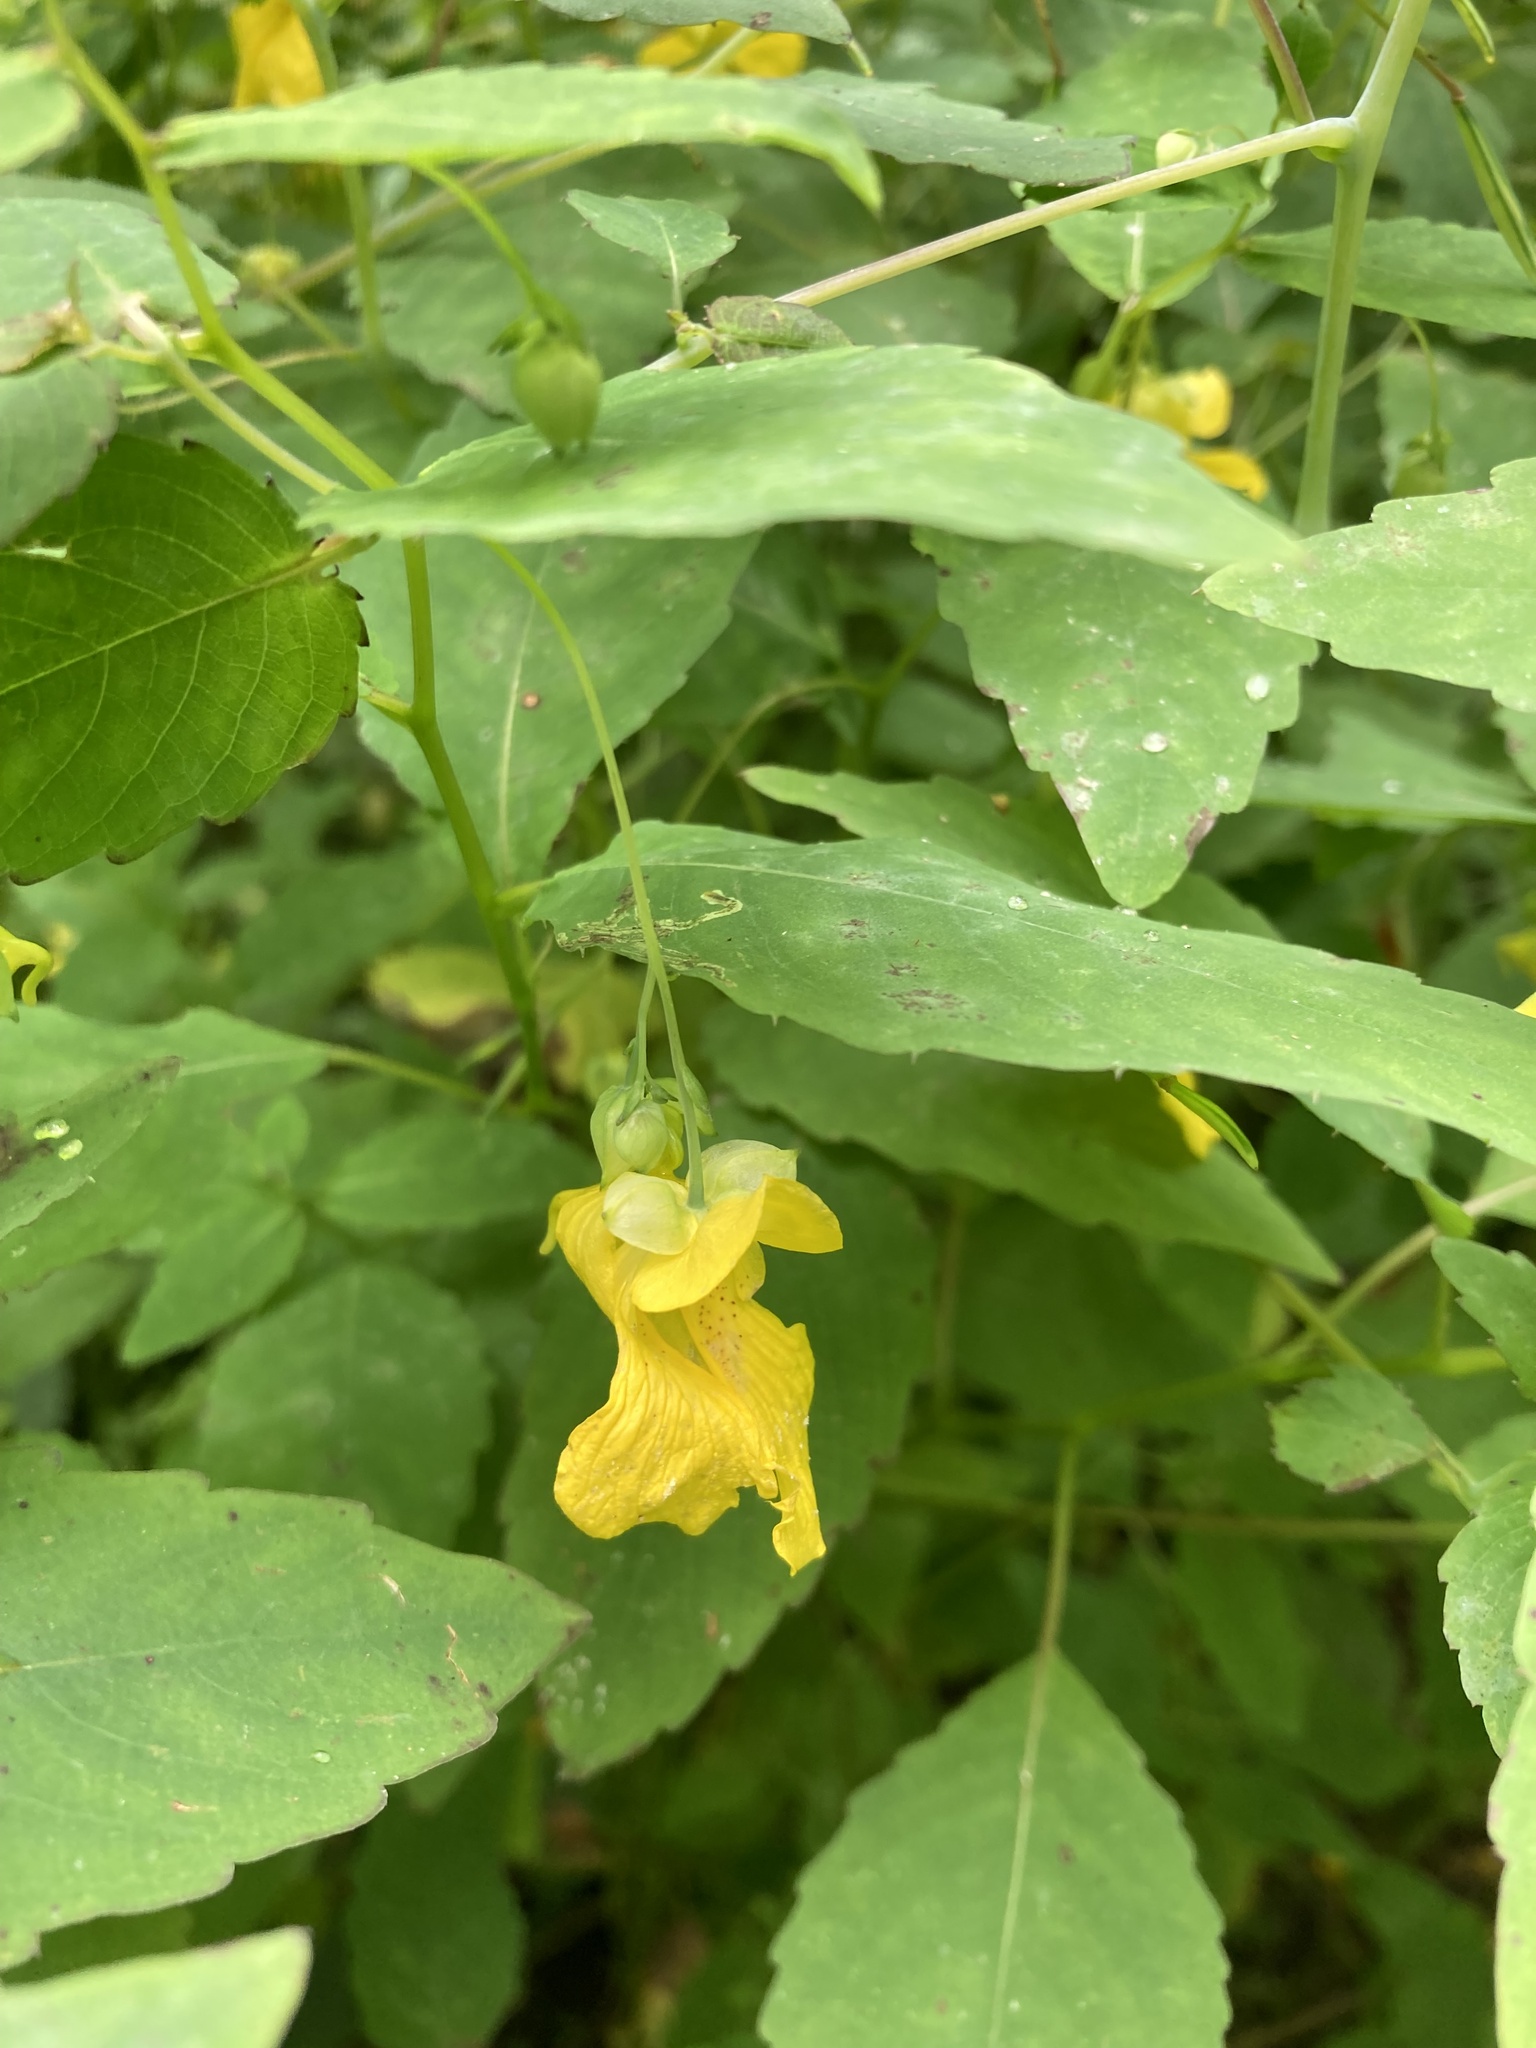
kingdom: Plantae
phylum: Tracheophyta
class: Magnoliopsida
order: Ericales
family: Balsaminaceae
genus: Impatiens
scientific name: Impatiens pallida
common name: Pale snapweed
